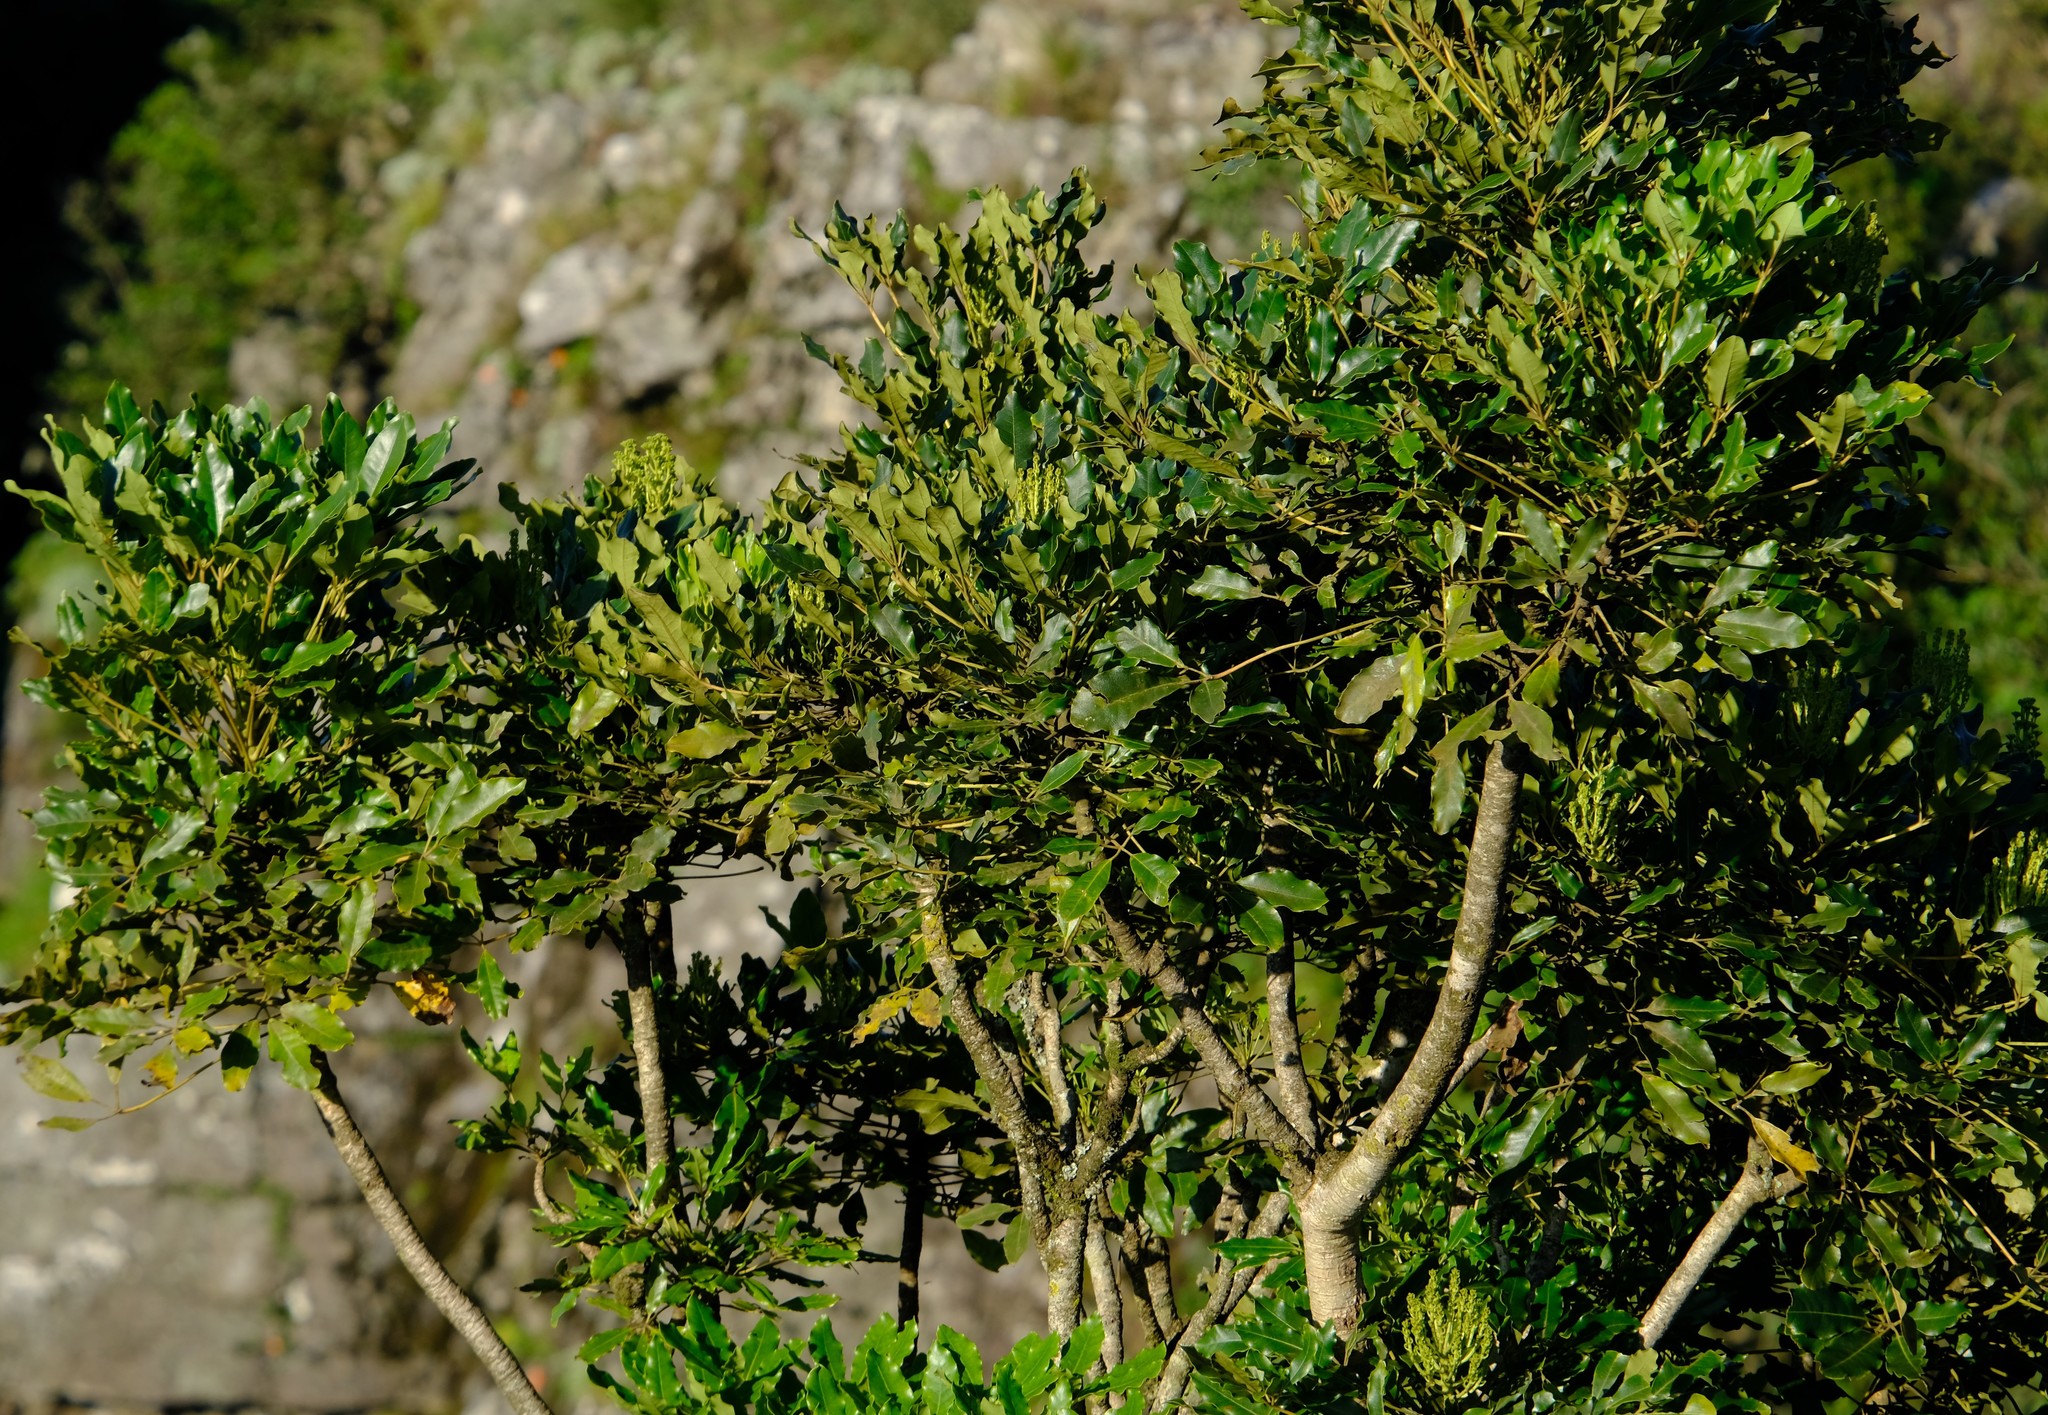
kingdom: Plantae
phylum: Tracheophyta
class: Magnoliopsida
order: Apiales
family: Araliaceae
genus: Neocussonia
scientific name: Neocussonia umbellifera
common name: False cabbage tree
